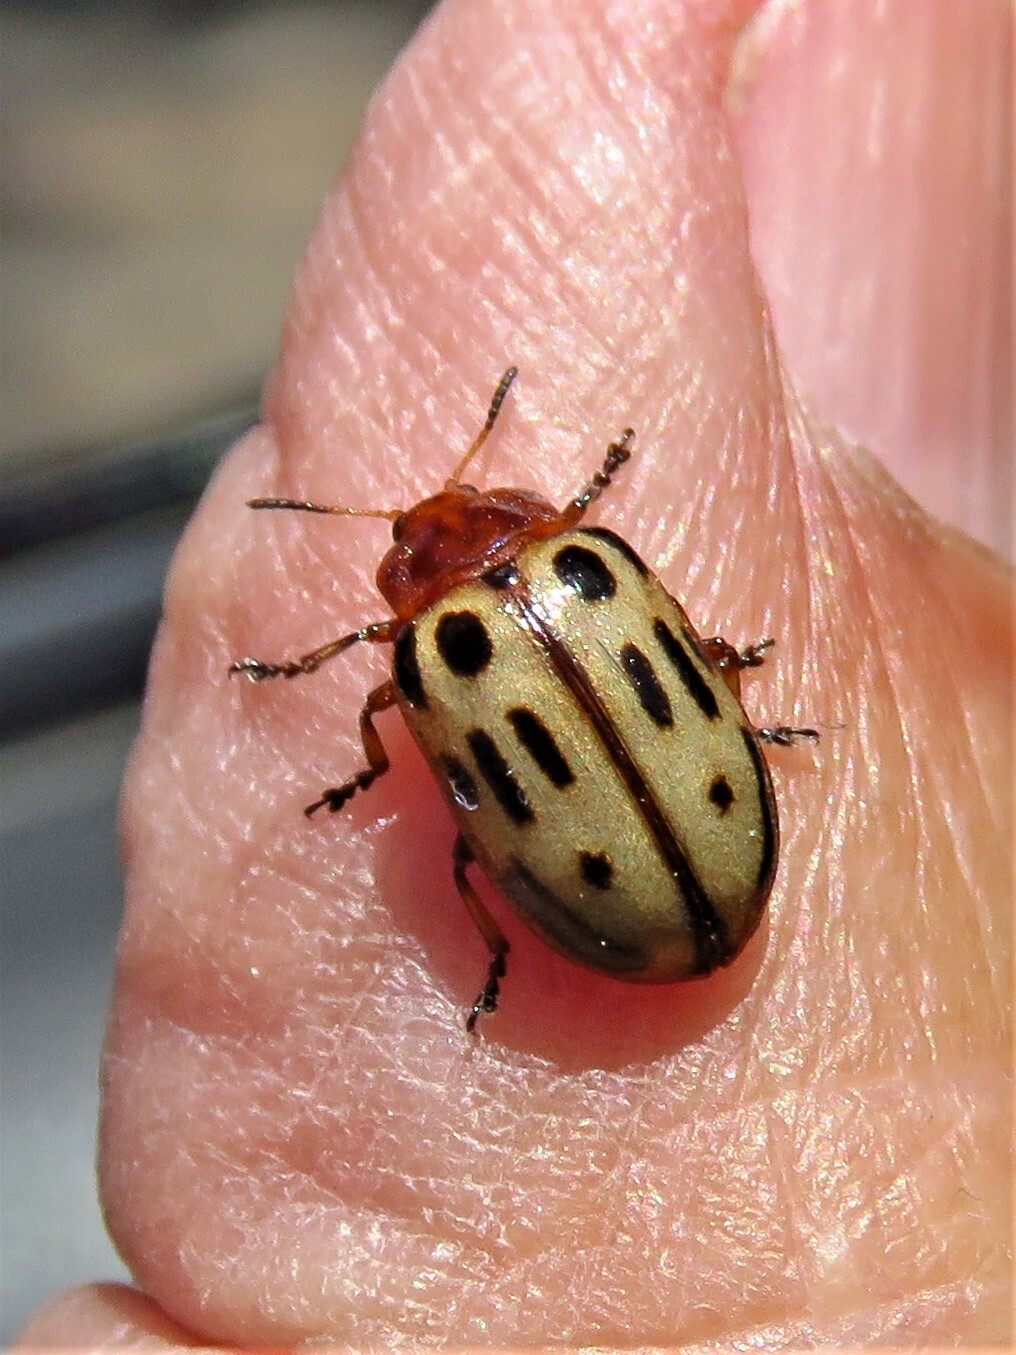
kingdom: Animalia
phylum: Arthropoda
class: Insecta
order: Coleoptera
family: Chrysomelidae
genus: Chrysomela
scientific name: Chrysomela texana
